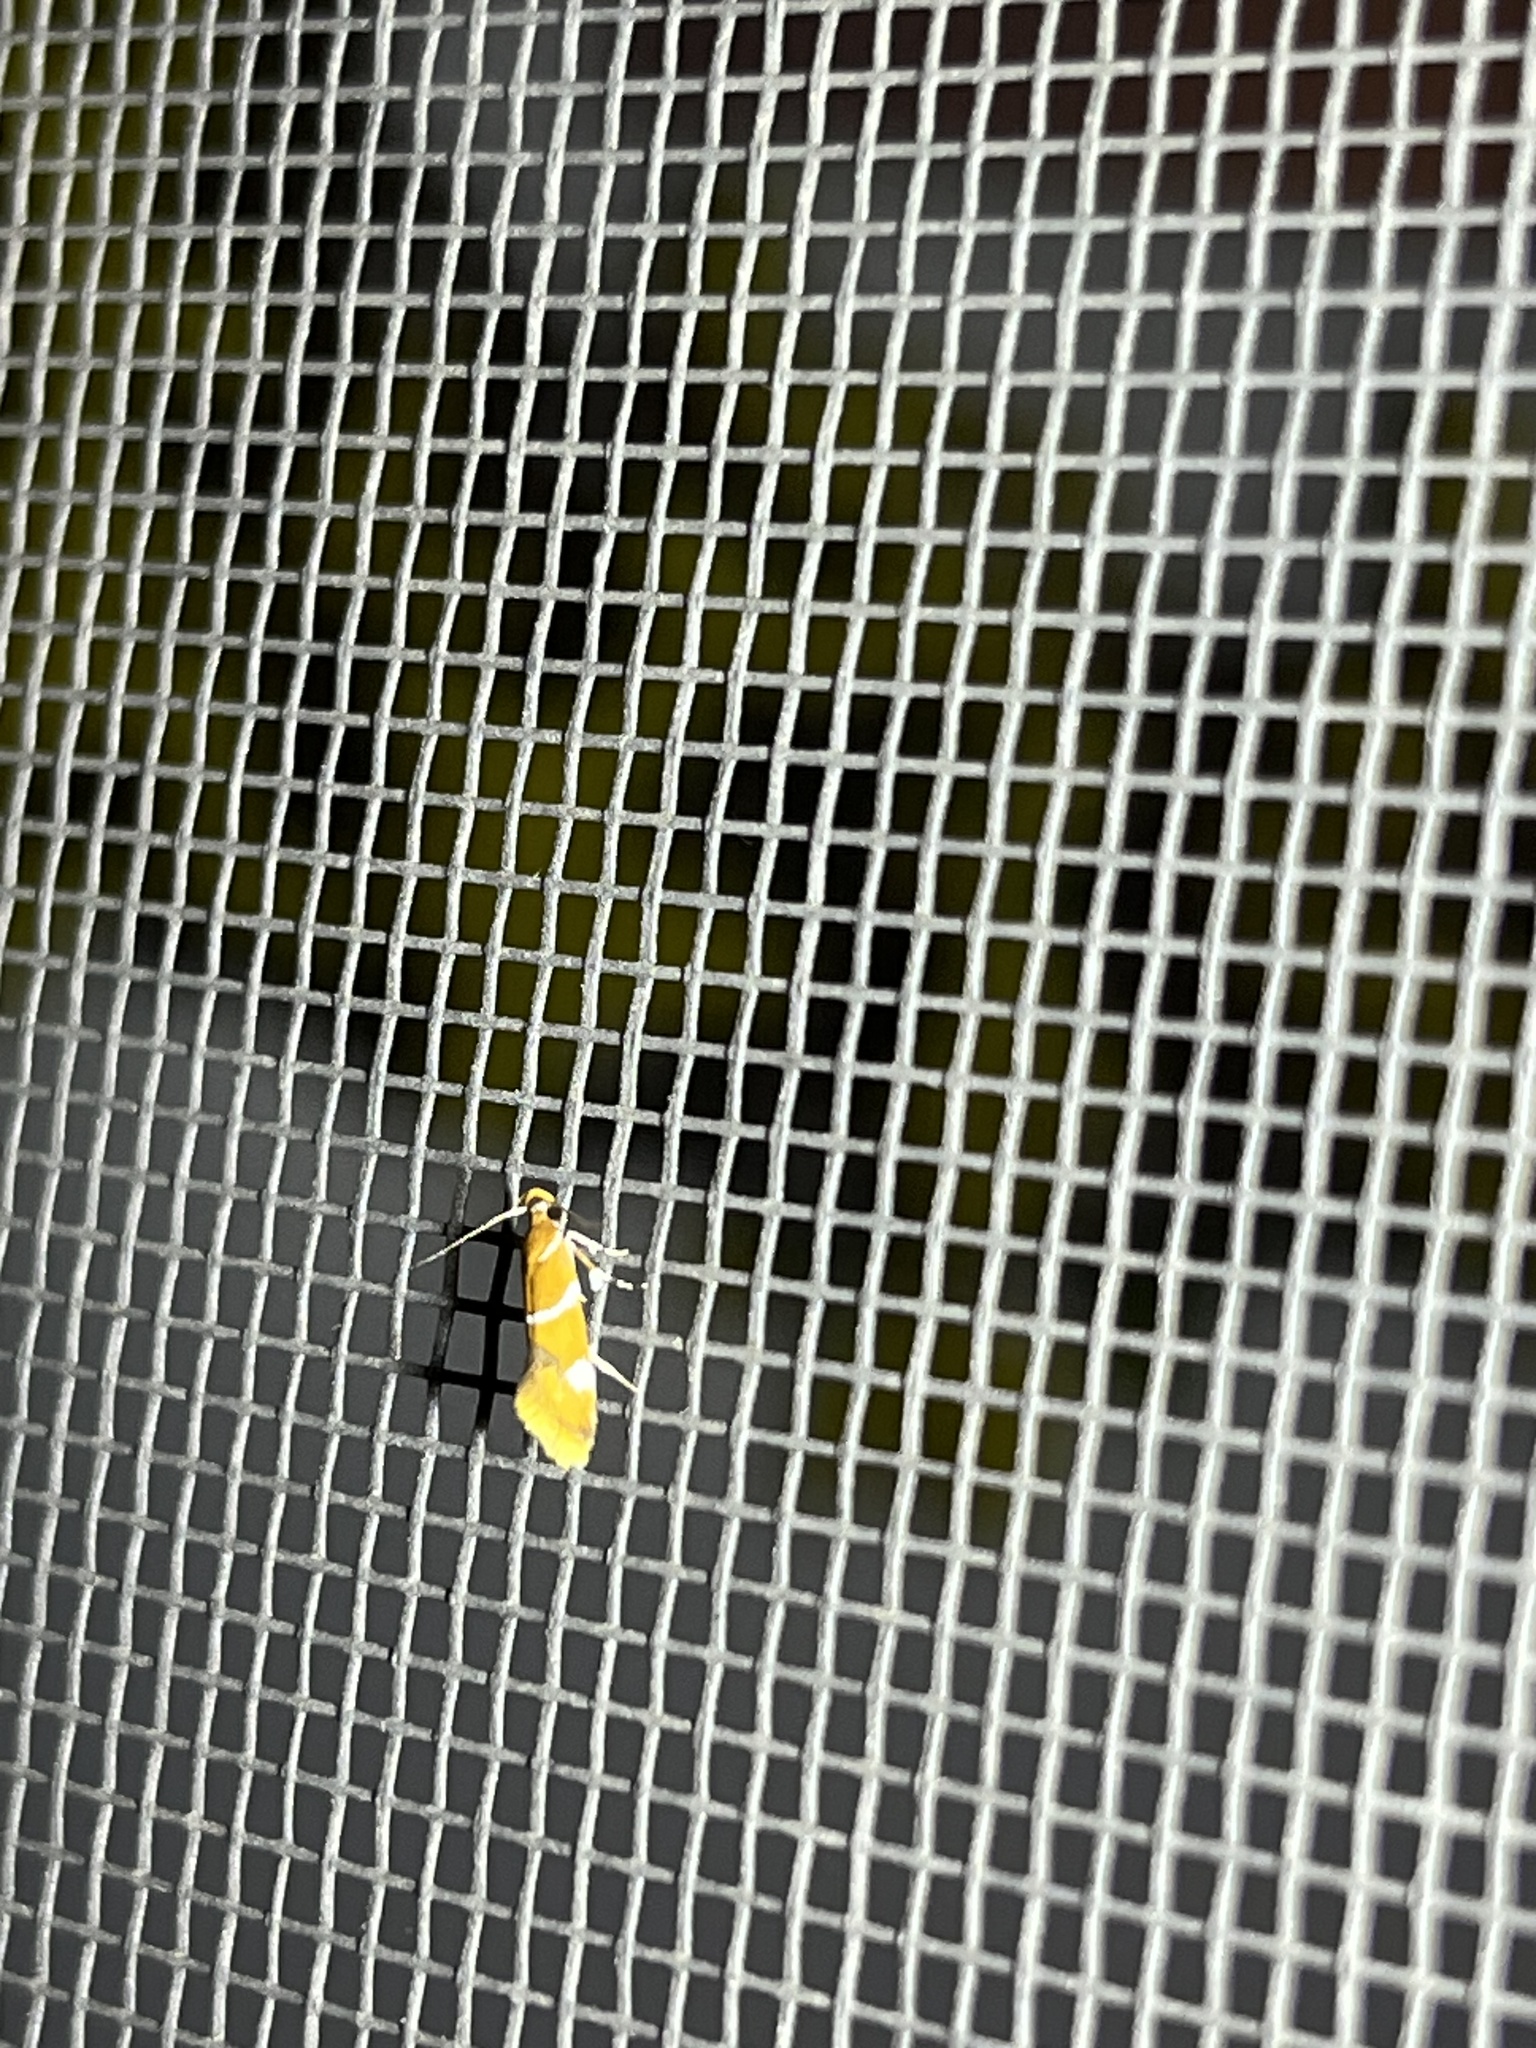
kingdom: Animalia
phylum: Arthropoda
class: Insecta
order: Lepidoptera
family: Oecophoridae
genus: Promalactis
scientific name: Promalactis suzukiella
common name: Moth
